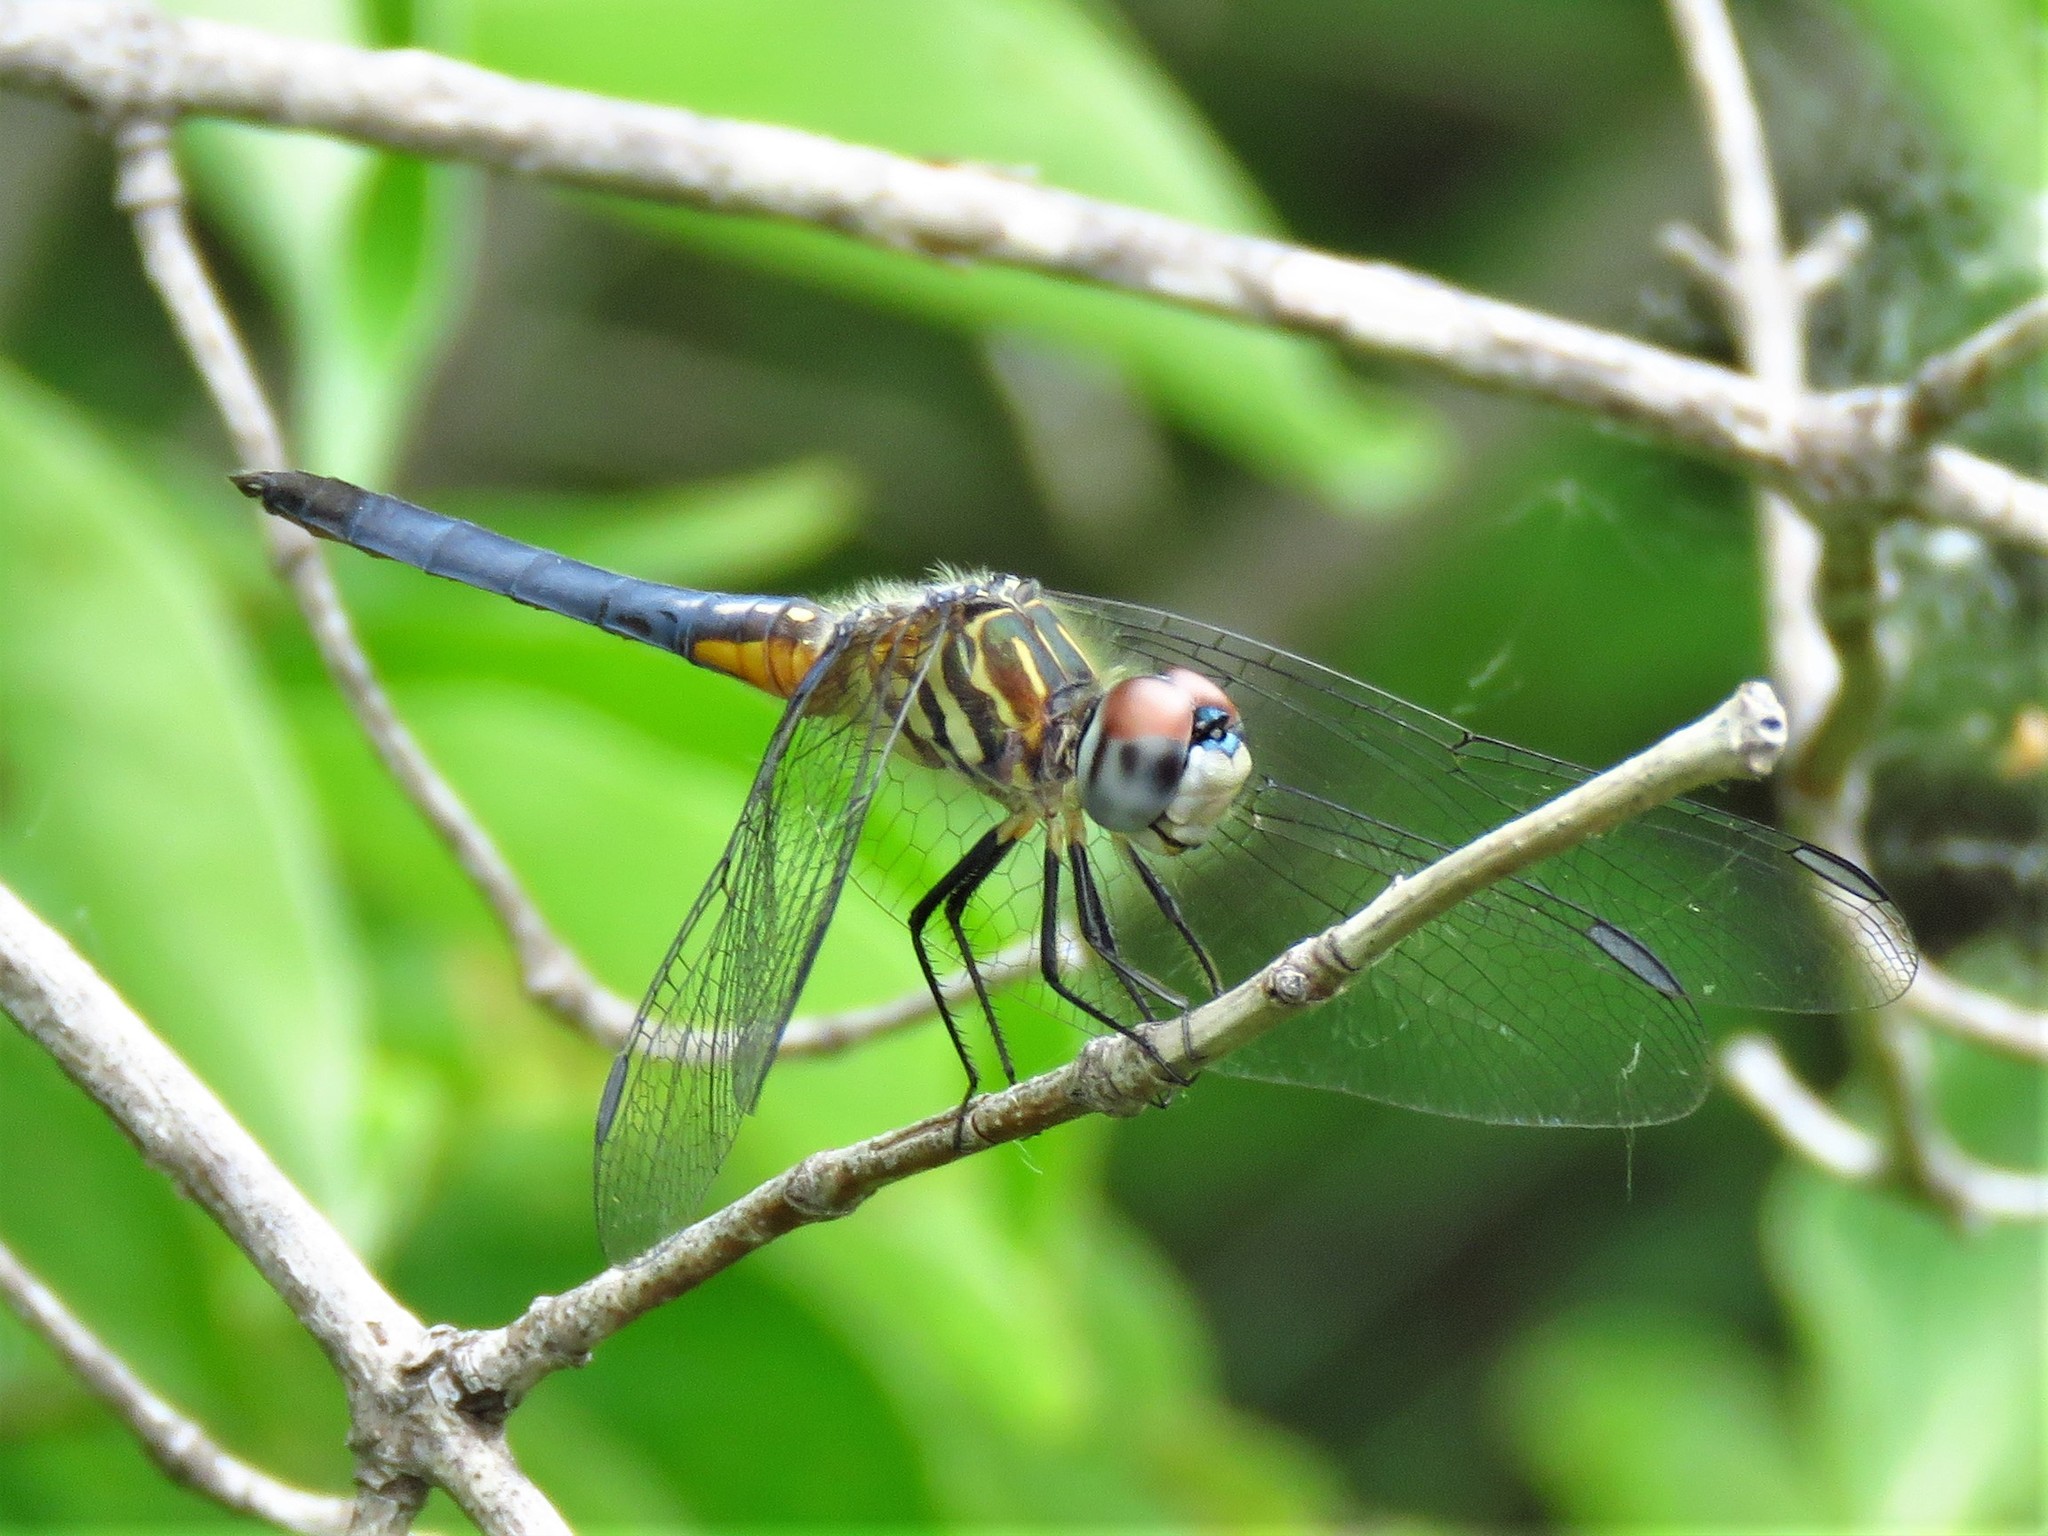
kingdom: Animalia
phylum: Arthropoda
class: Insecta
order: Odonata
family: Libellulidae
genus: Pachydiplax
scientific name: Pachydiplax longipennis
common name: Blue dasher
